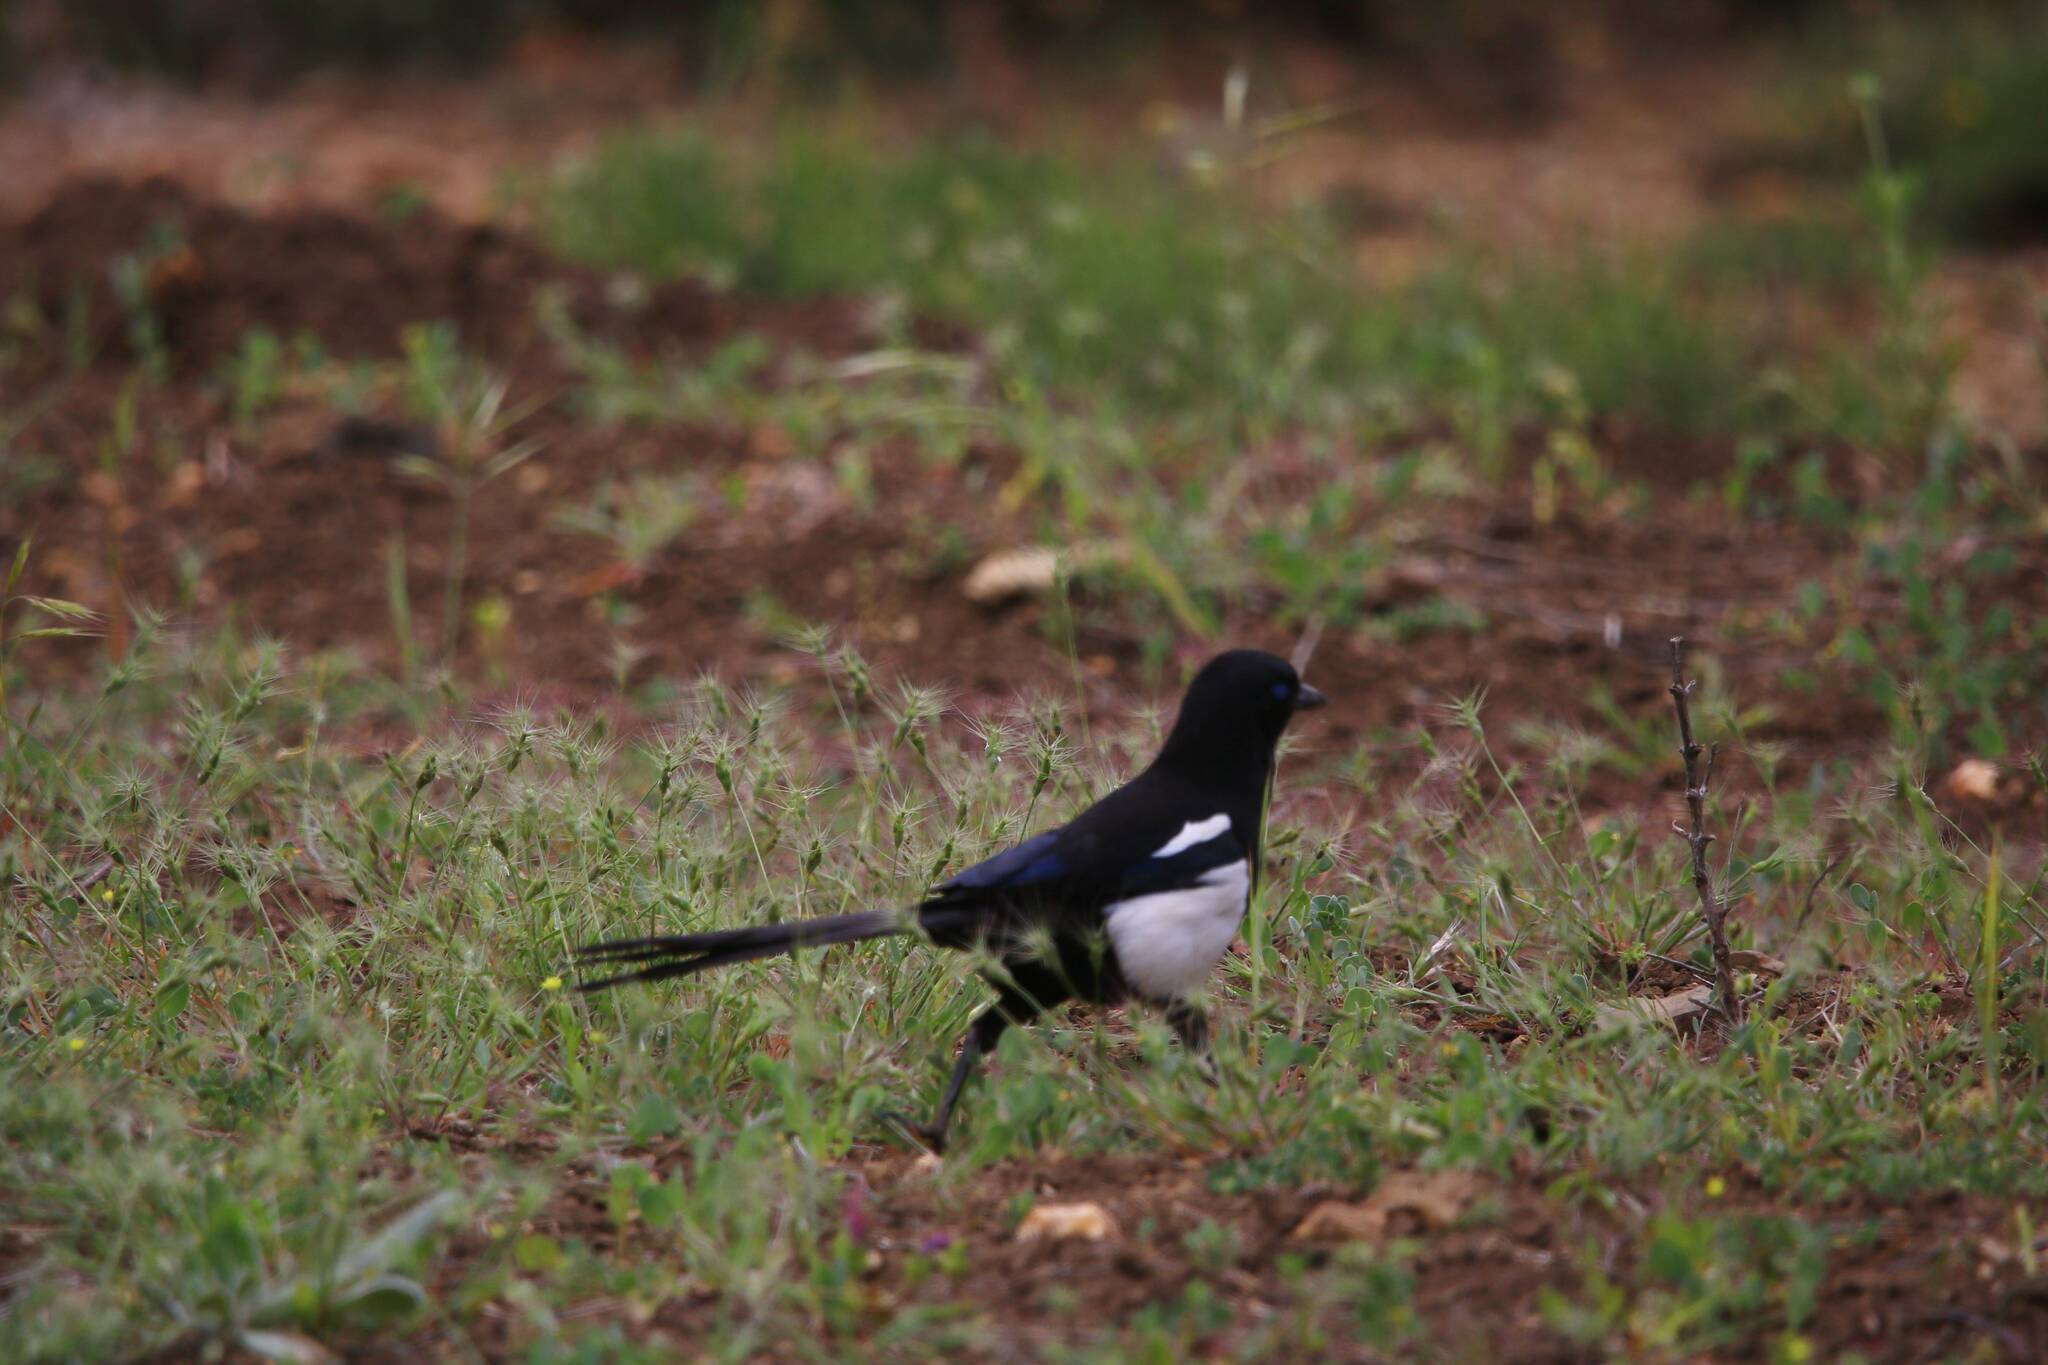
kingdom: Animalia
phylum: Chordata
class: Aves
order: Passeriformes
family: Corvidae
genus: Pica
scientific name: Pica mauritanica
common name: Maghreb magpie
